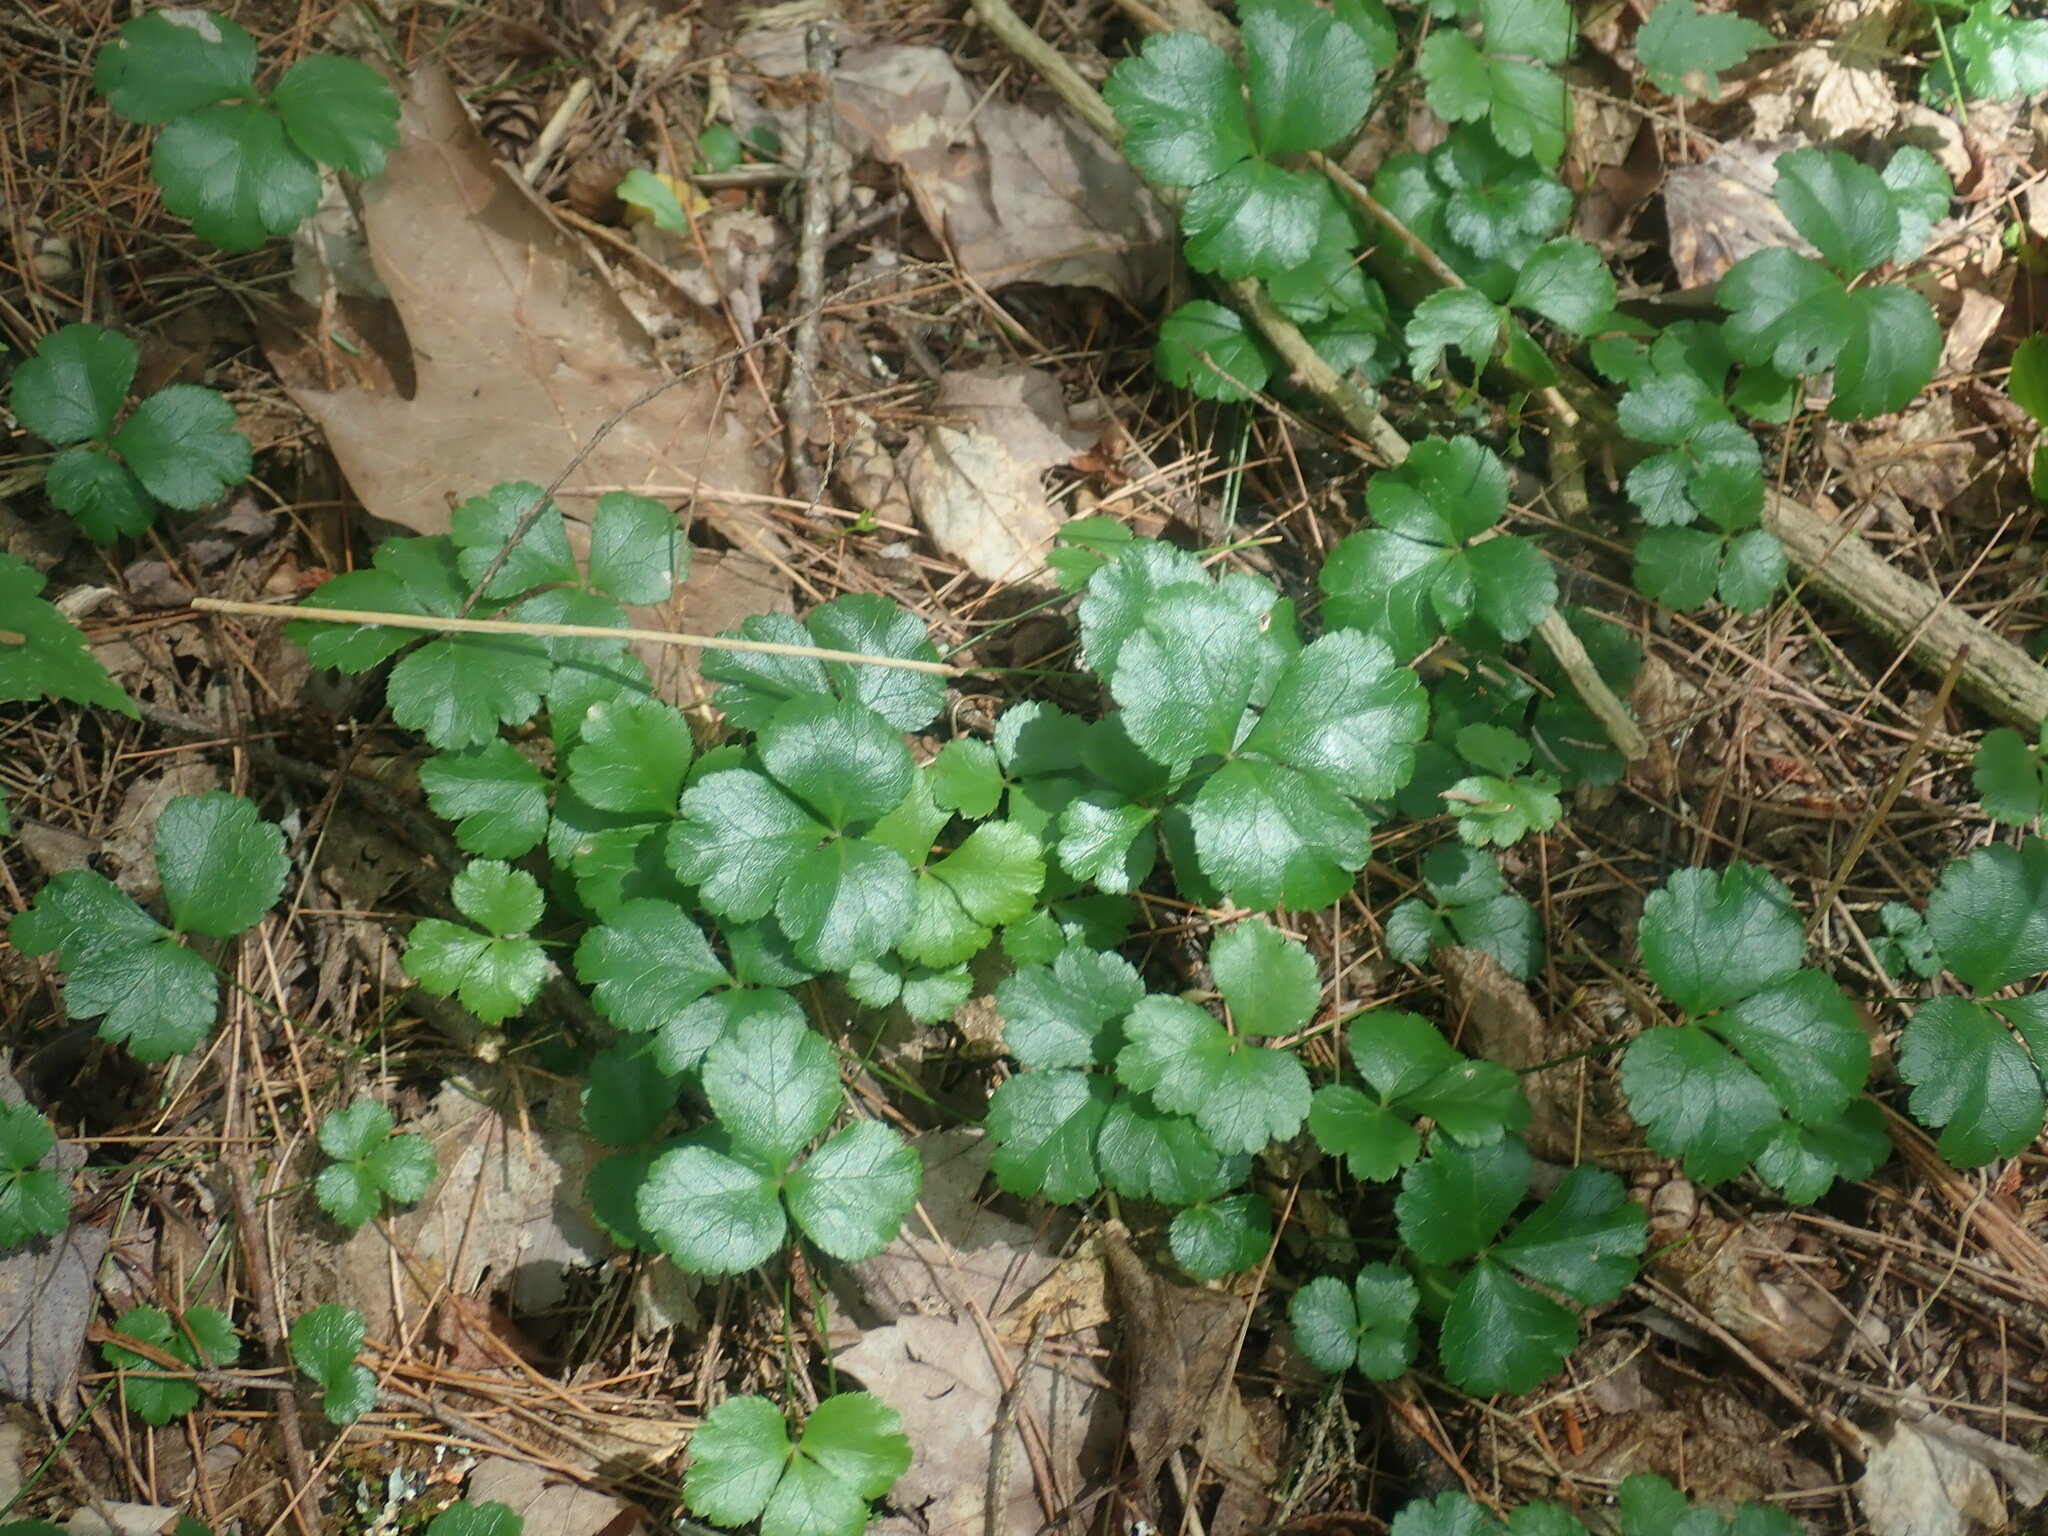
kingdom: Plantae
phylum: Tracheophyta
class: Magnoliopsida
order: Ranunculales
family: Ranunculaceae
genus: Coptis
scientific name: Coptis trifolia
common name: Canker-root
